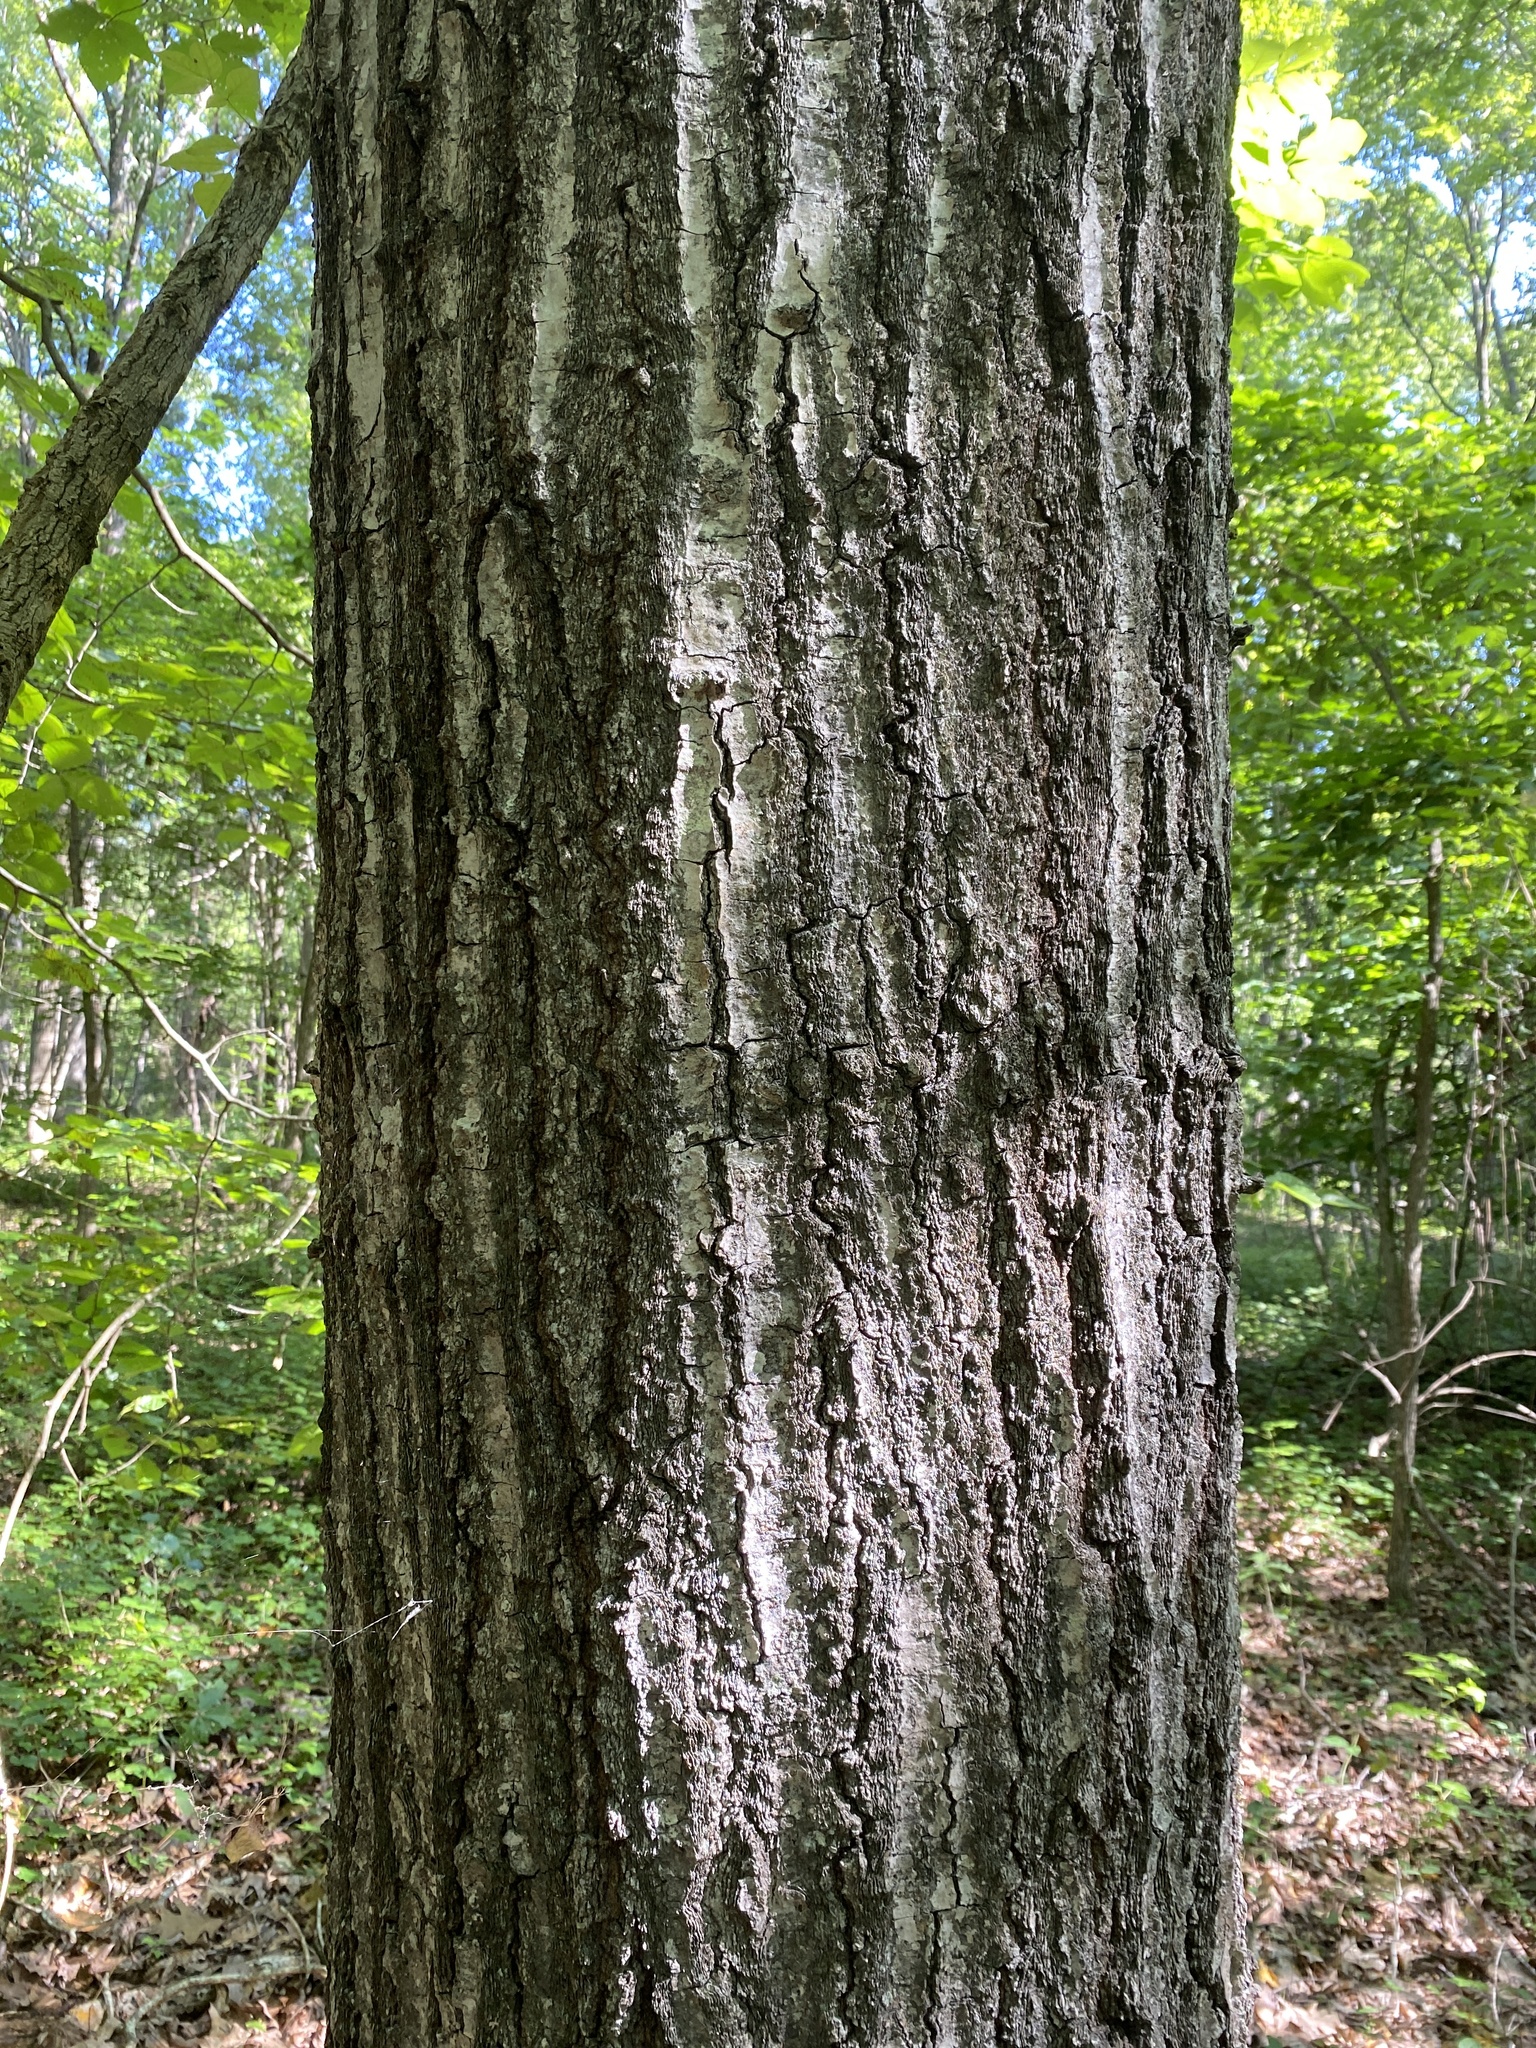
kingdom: Plantae
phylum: Tracheophyta
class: Magnoliopsida
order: Fagales
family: Fagaceae
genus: Quercus
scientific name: Quercus rubra
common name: Red oak
